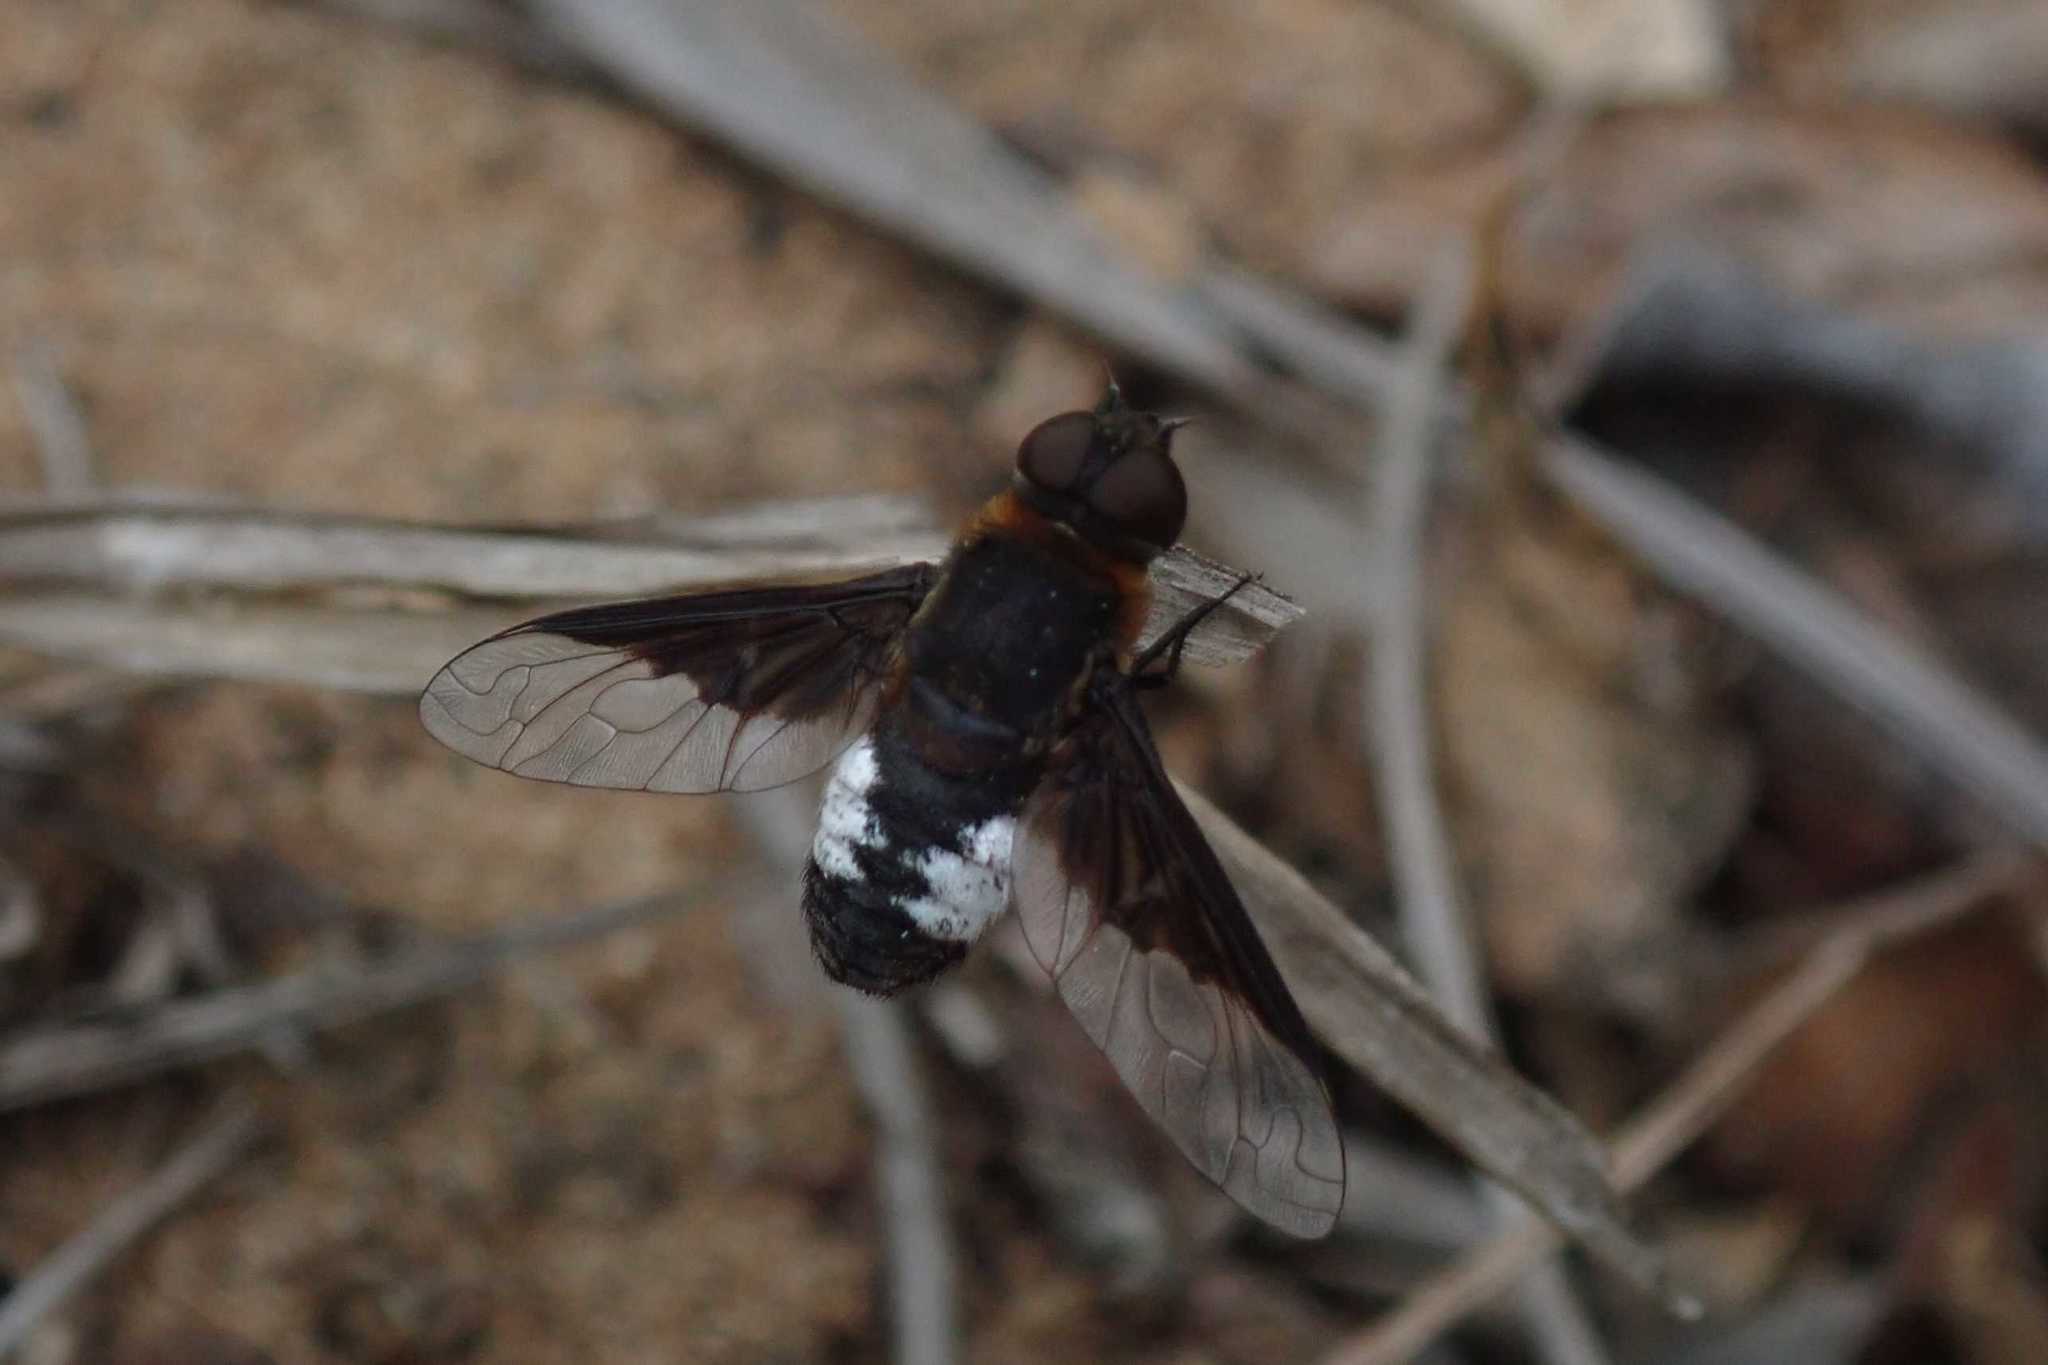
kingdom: Animalia
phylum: Arthropoda
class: Insecta
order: Diptera
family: Bombyliidae
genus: Exoprosopa
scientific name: Exoprosopa dimidiata
